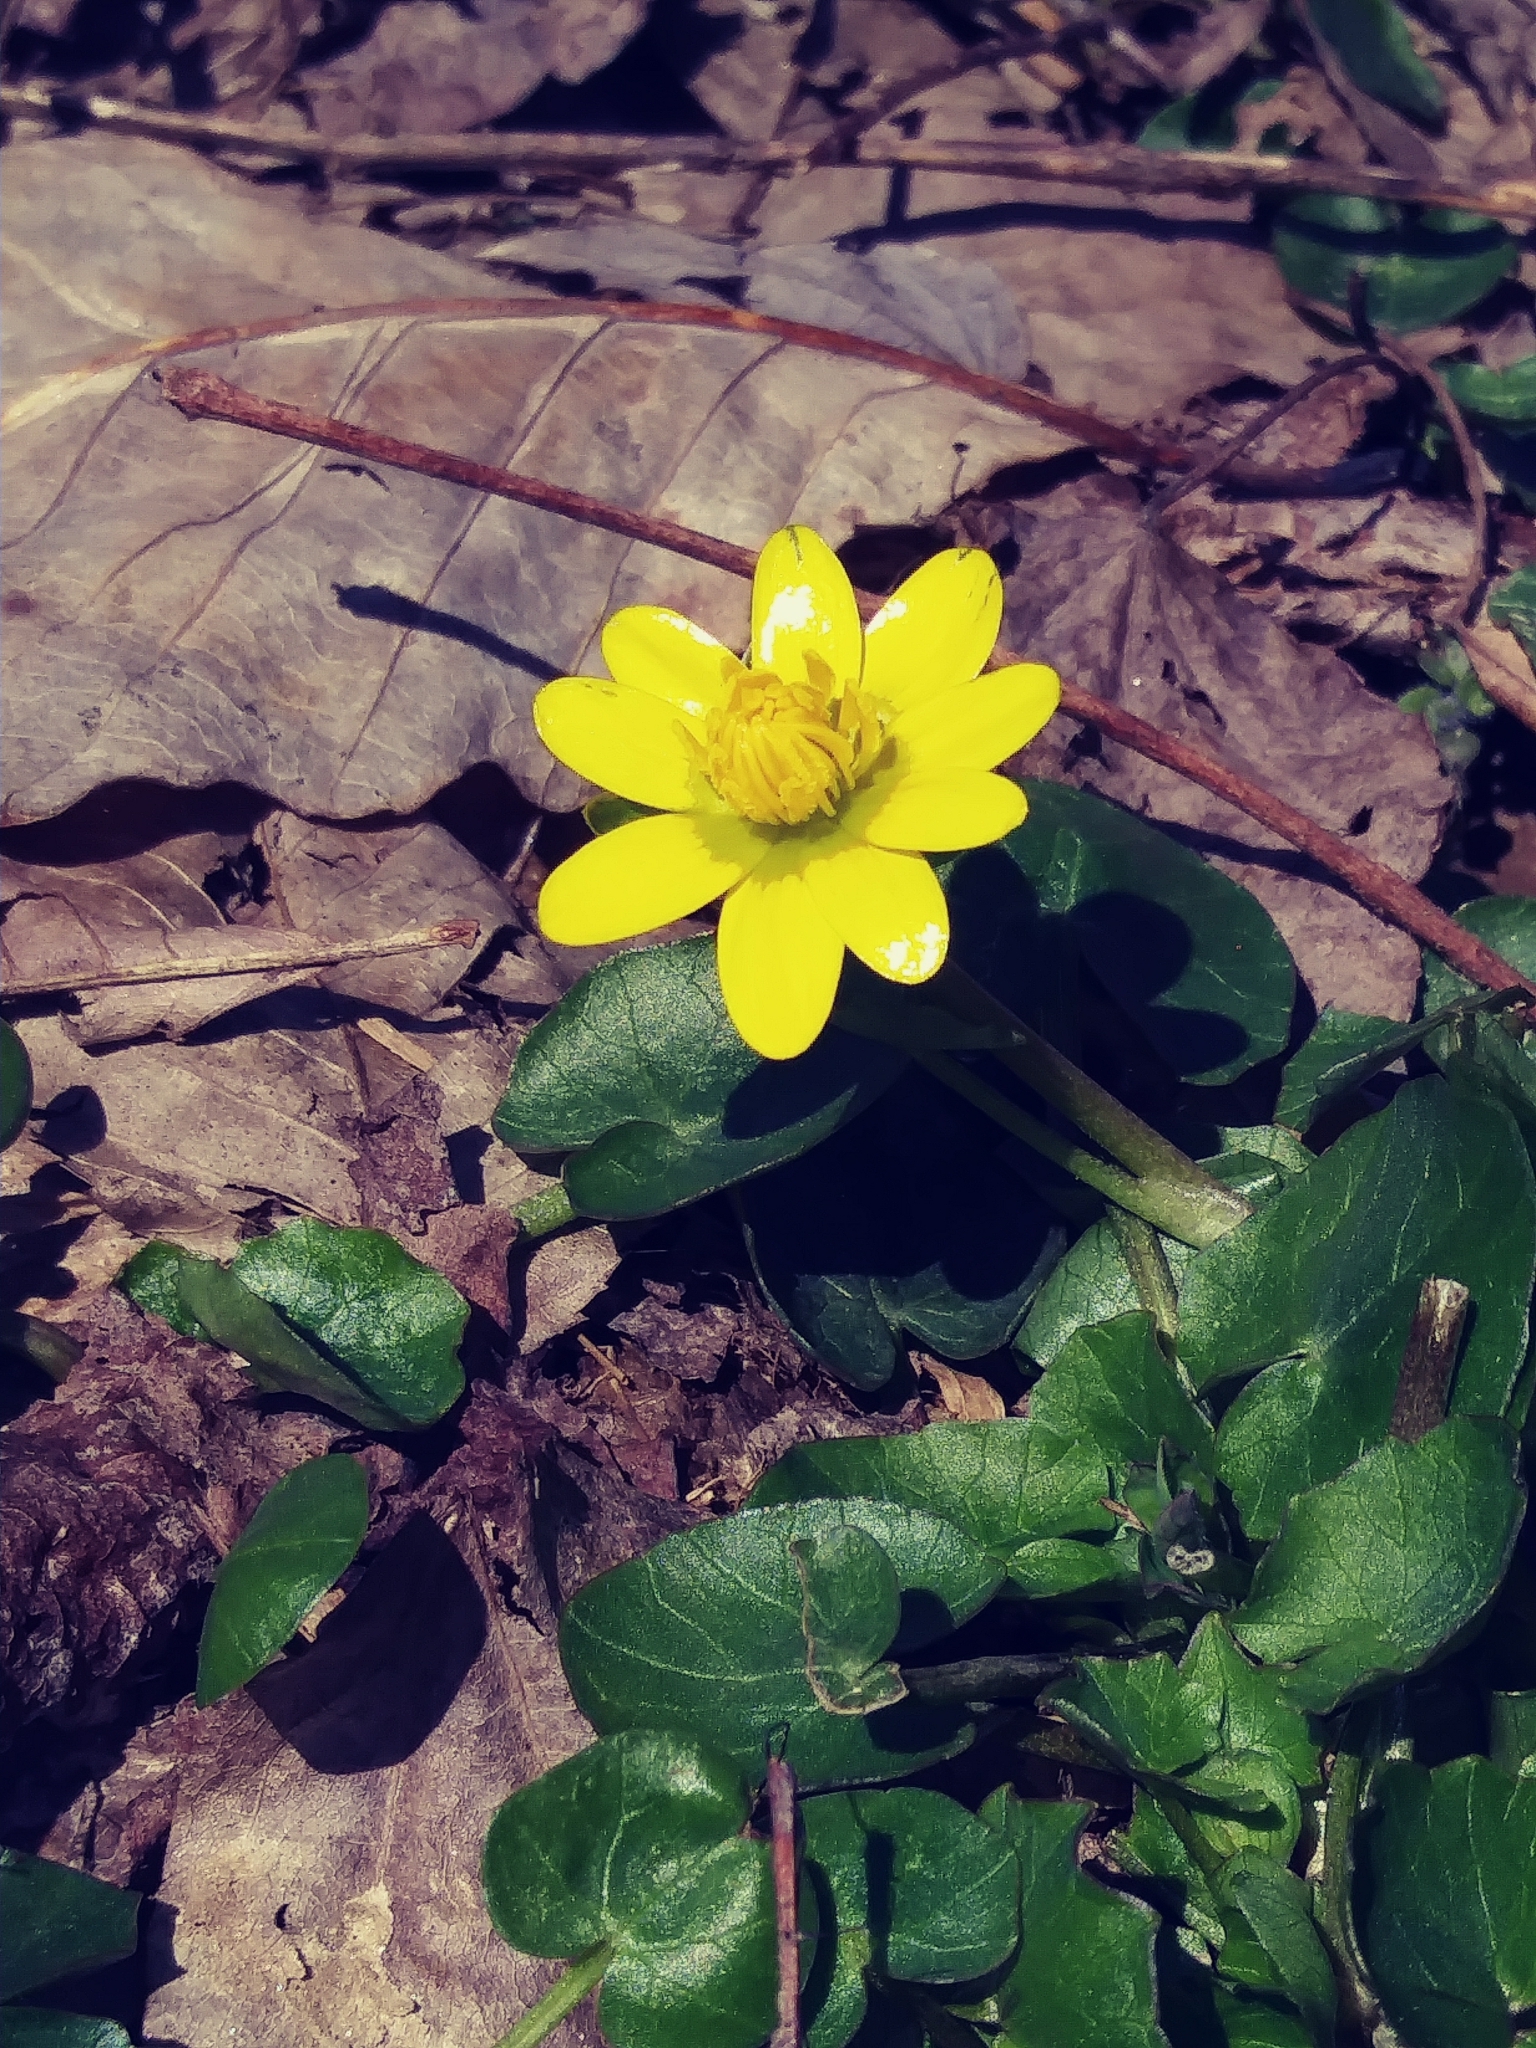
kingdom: Plantae
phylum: Tracheophyta
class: Magnoliopsida
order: Ranunculales
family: Ranunculaceae
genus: Ficaria
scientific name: Ficaria verna
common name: Lesser celandine
